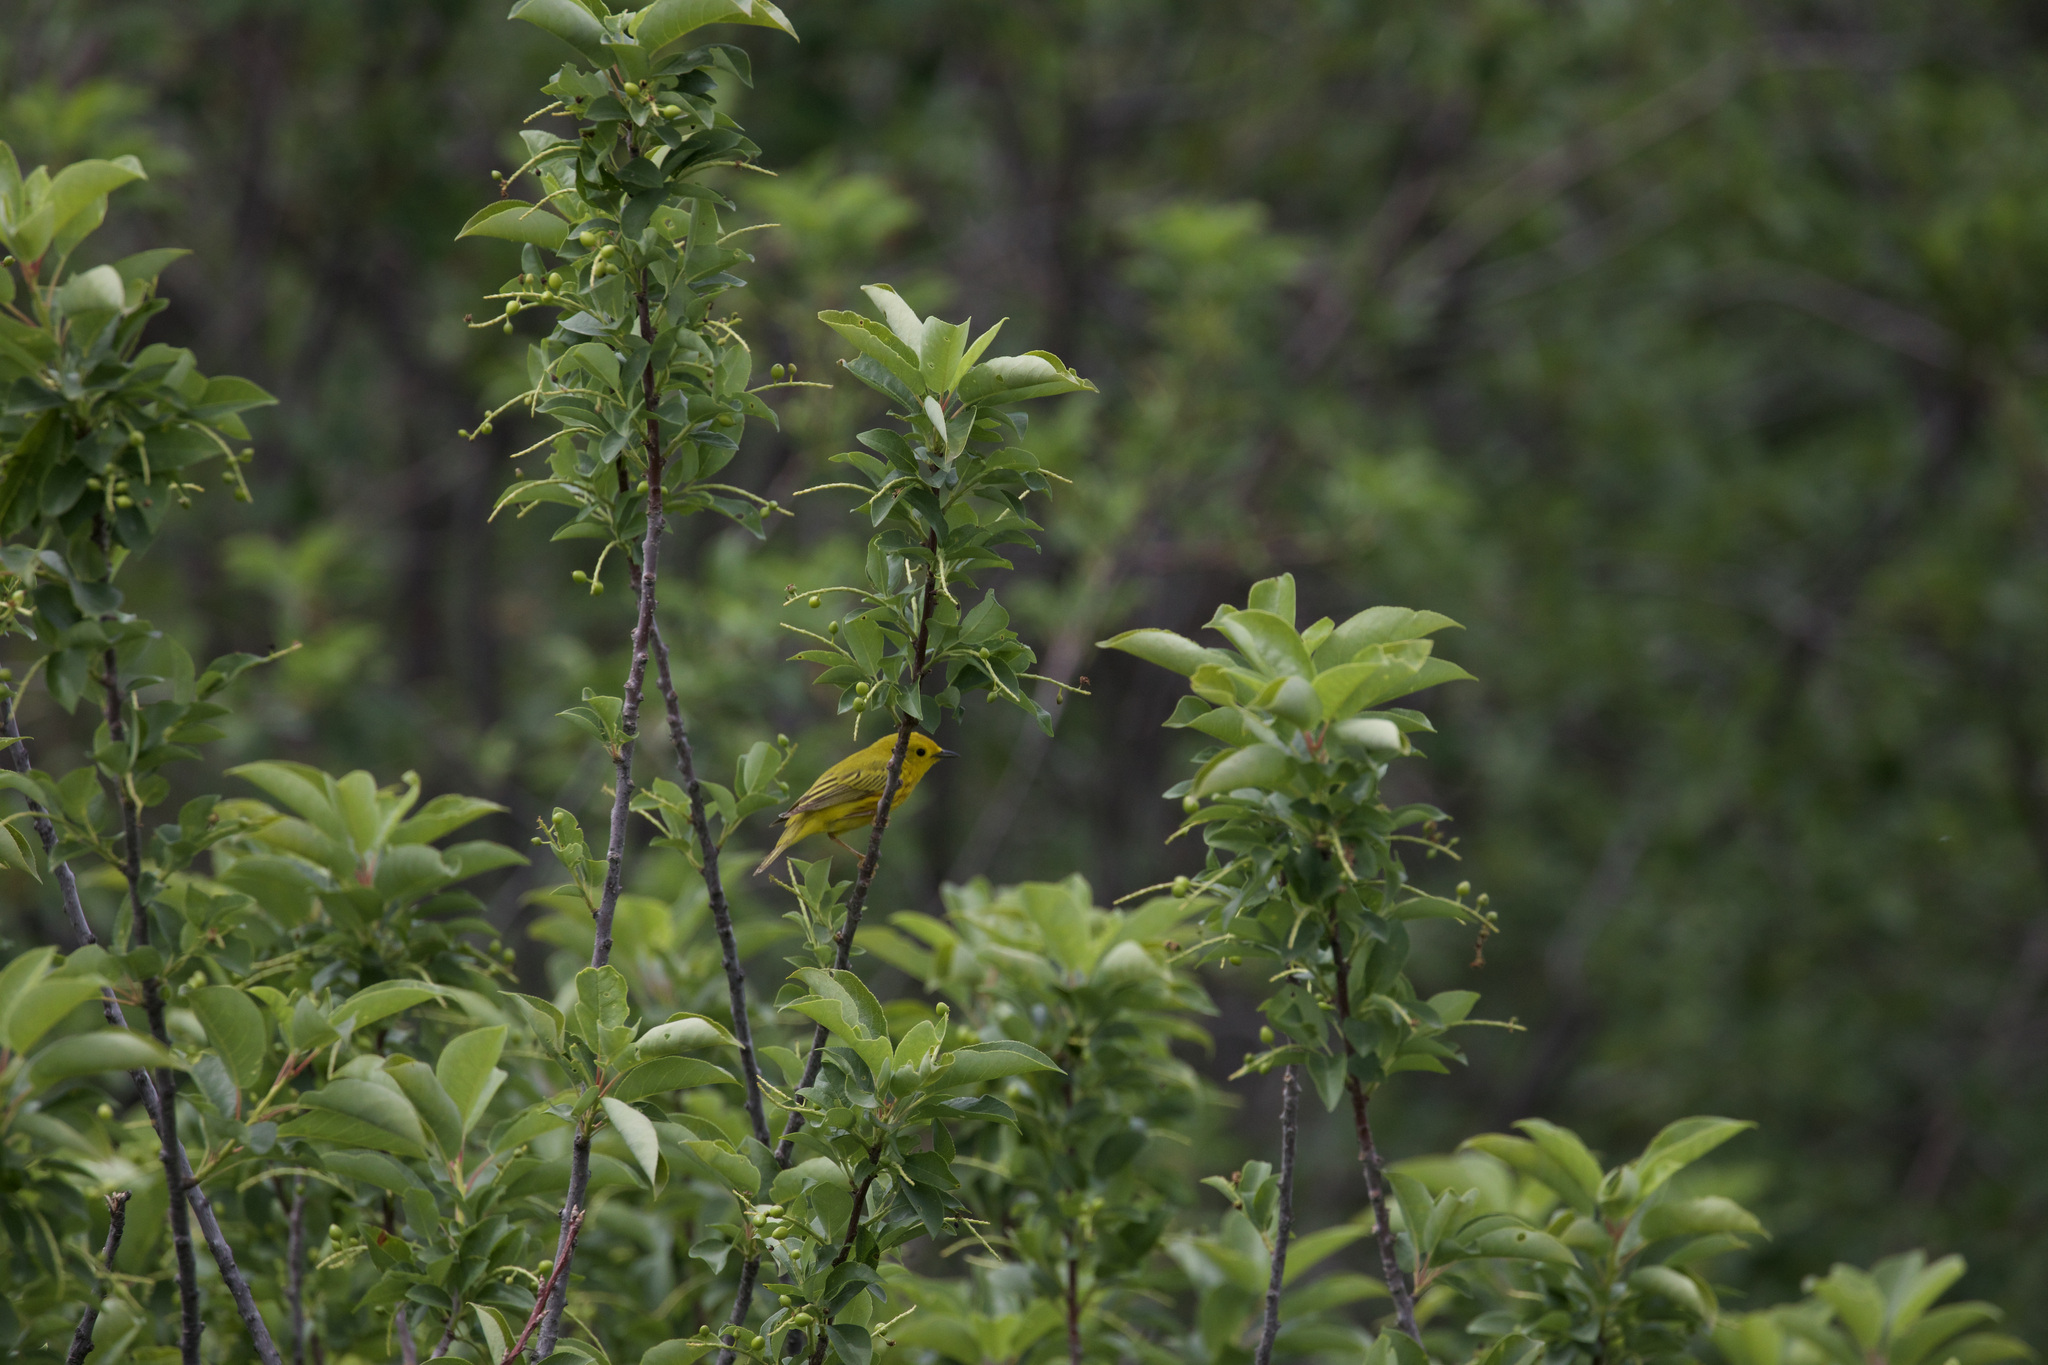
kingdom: Animalia
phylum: Chordata
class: Aves
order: Passeriformes
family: Parulidae
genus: Setophaga
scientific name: Setophaga petechia
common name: Yellow warbler
